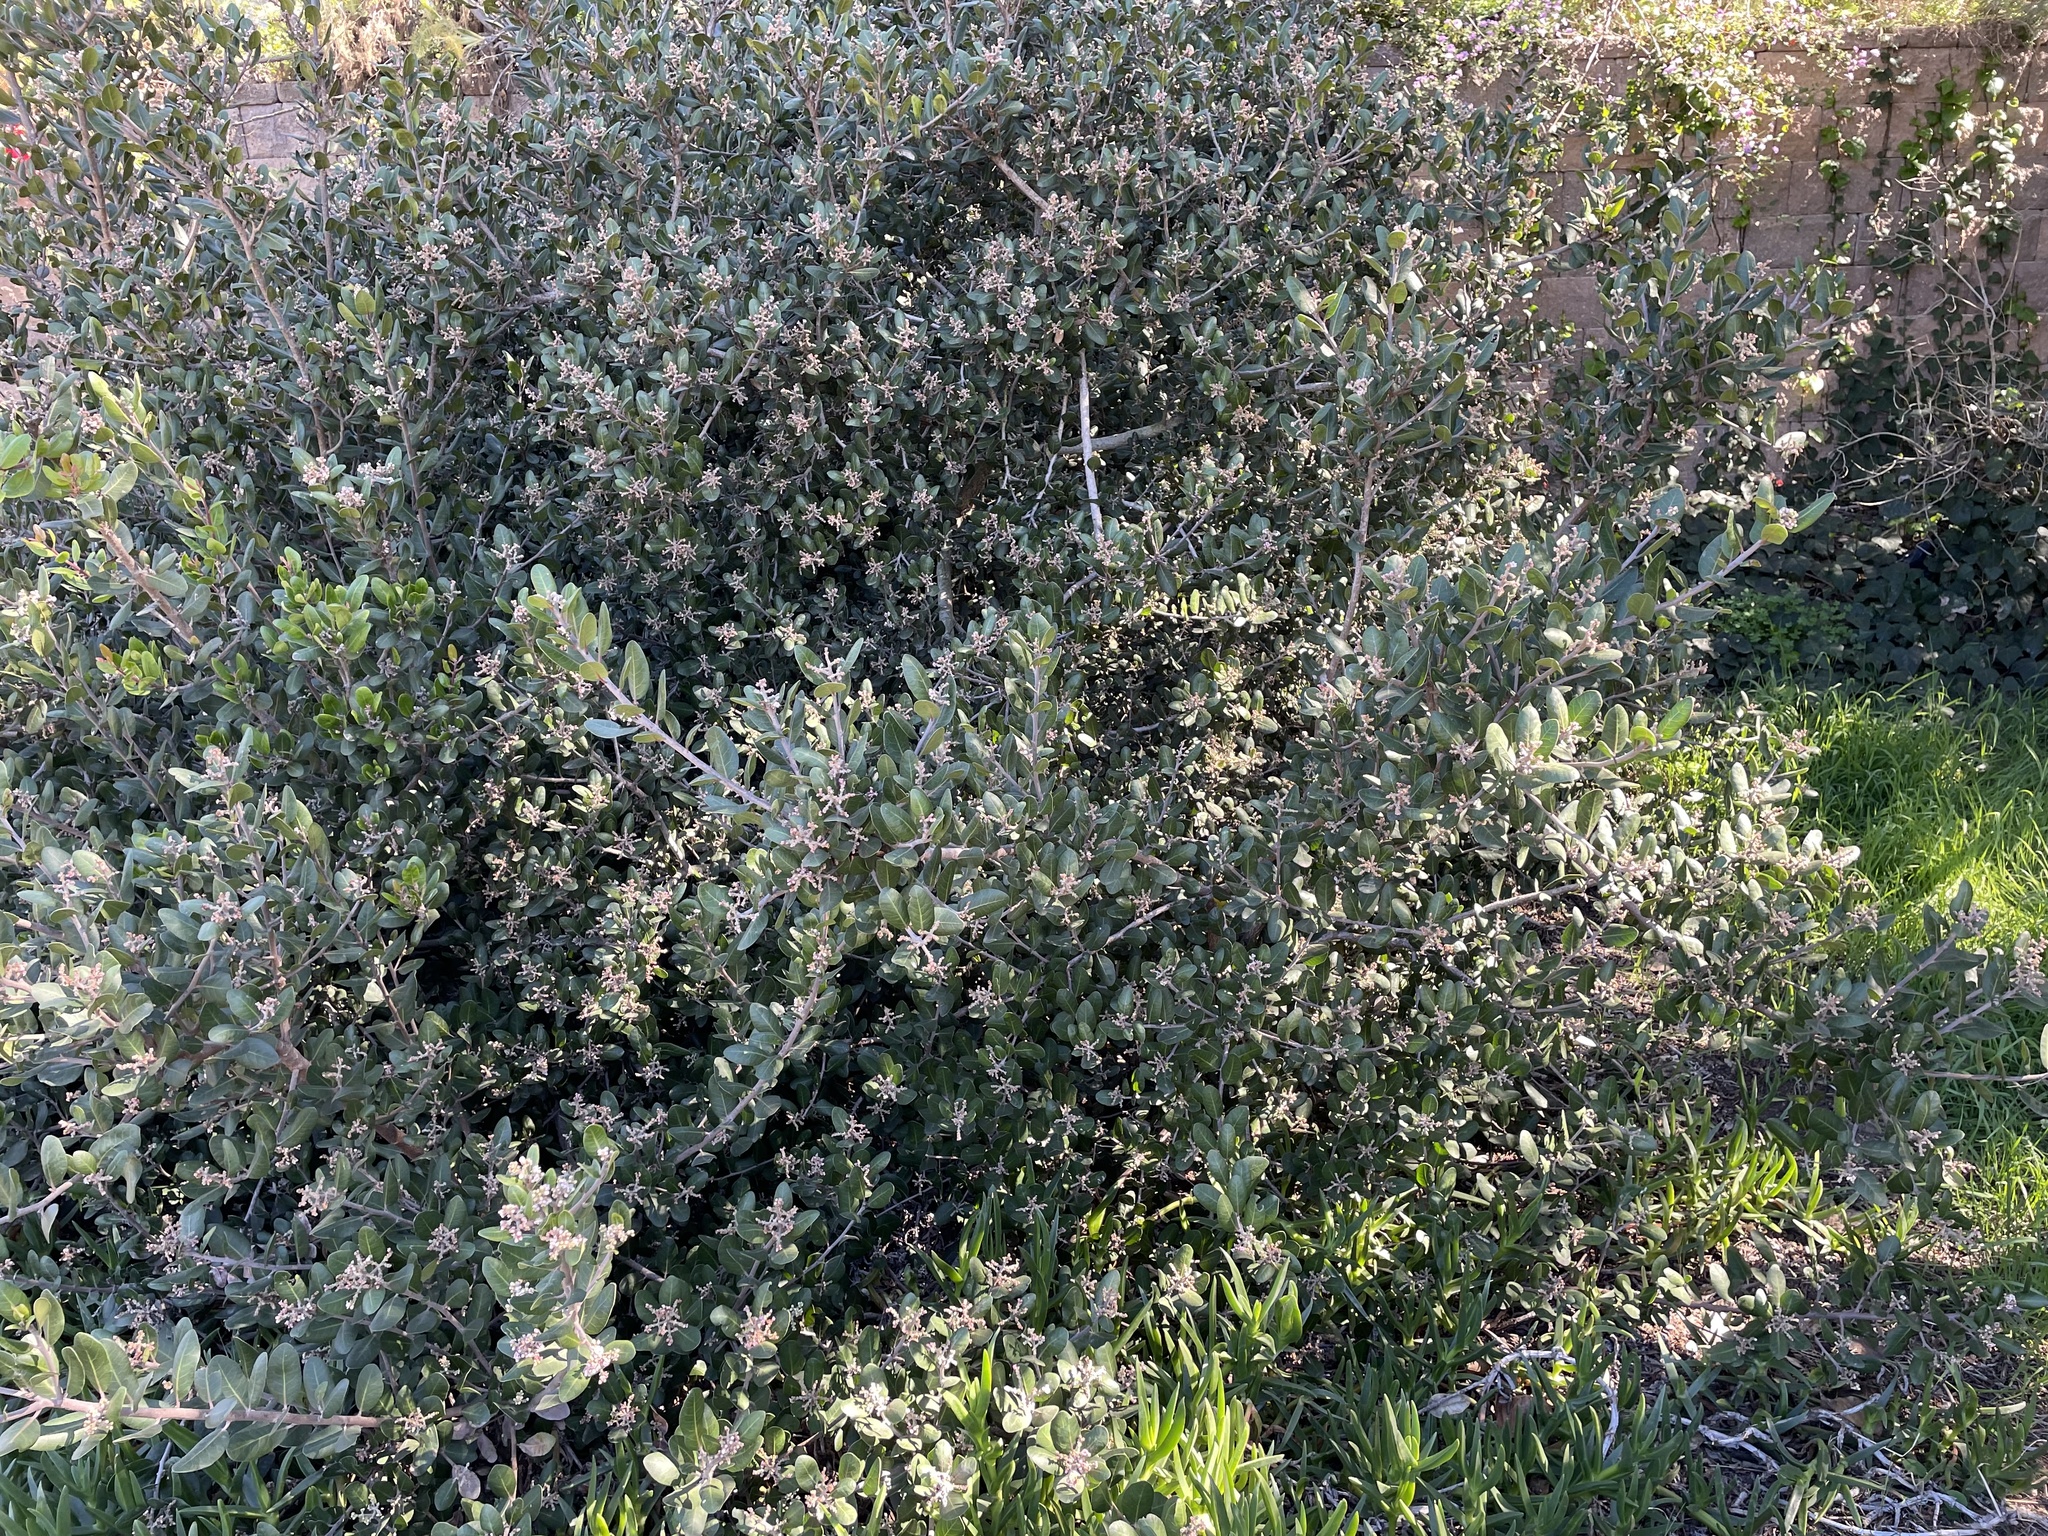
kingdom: Plantae
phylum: Tracheophyta
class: Magnoliopsida
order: Sapindales
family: Anacardiaceae
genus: Rhus
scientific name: Rhus integrifolia
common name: Lemonade sumac
